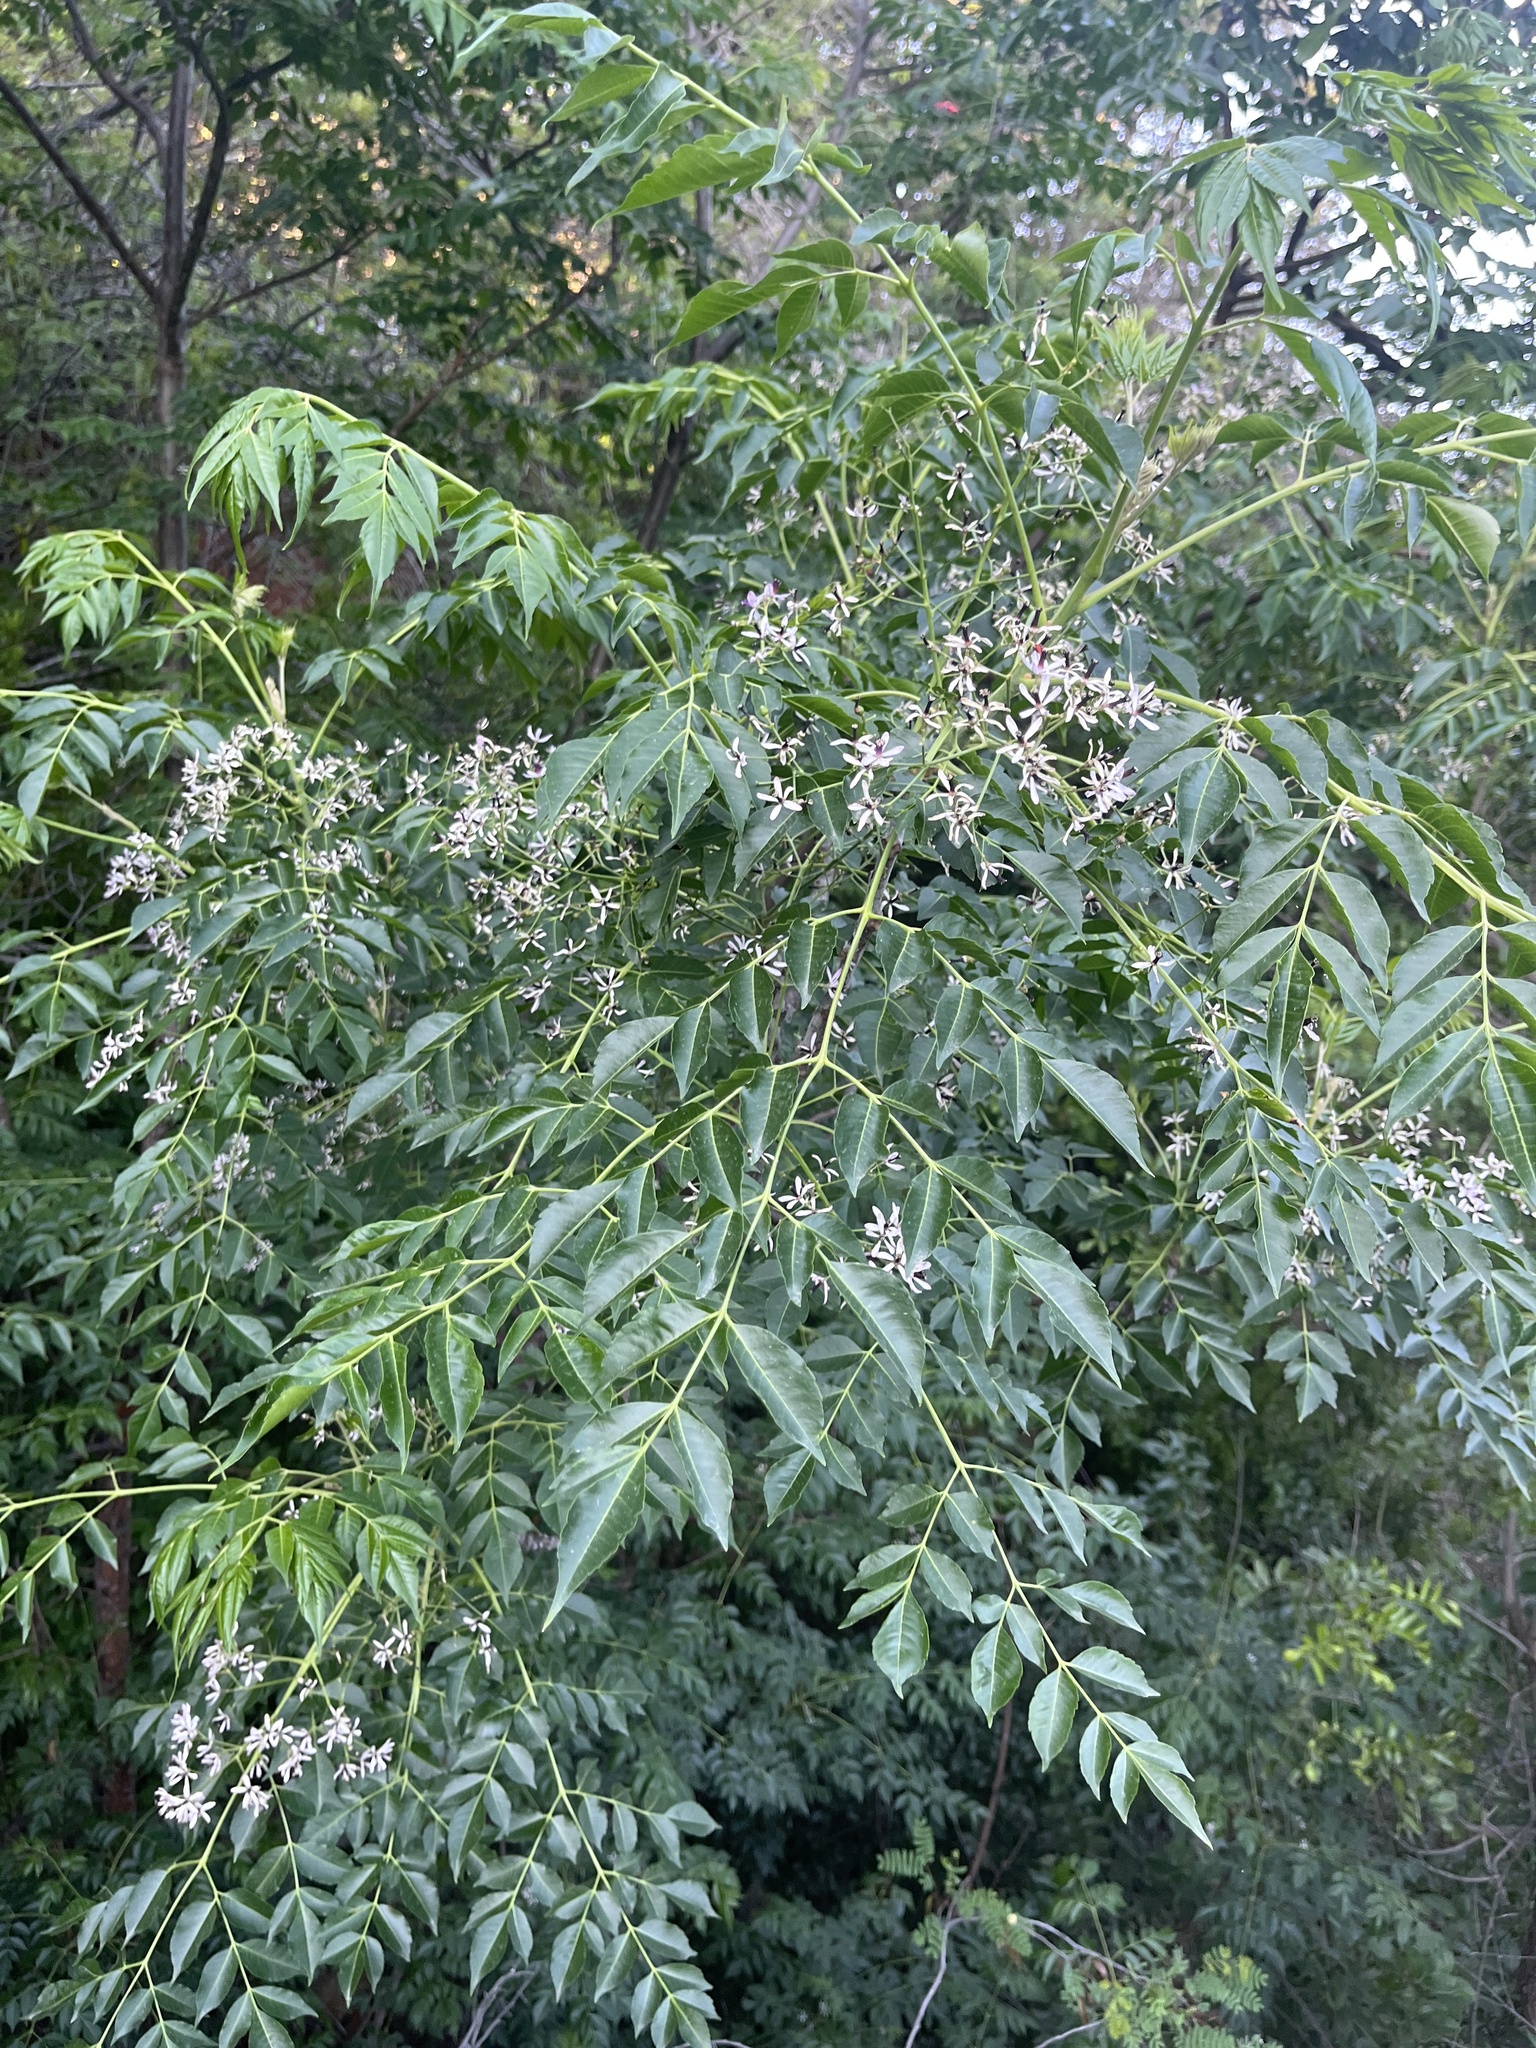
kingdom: Plantae
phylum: Tracheophyta
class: Magnoliopsida
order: Sapindales
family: Meliaceae
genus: Melia
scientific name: Melia azedarach
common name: Chinaberrytree
